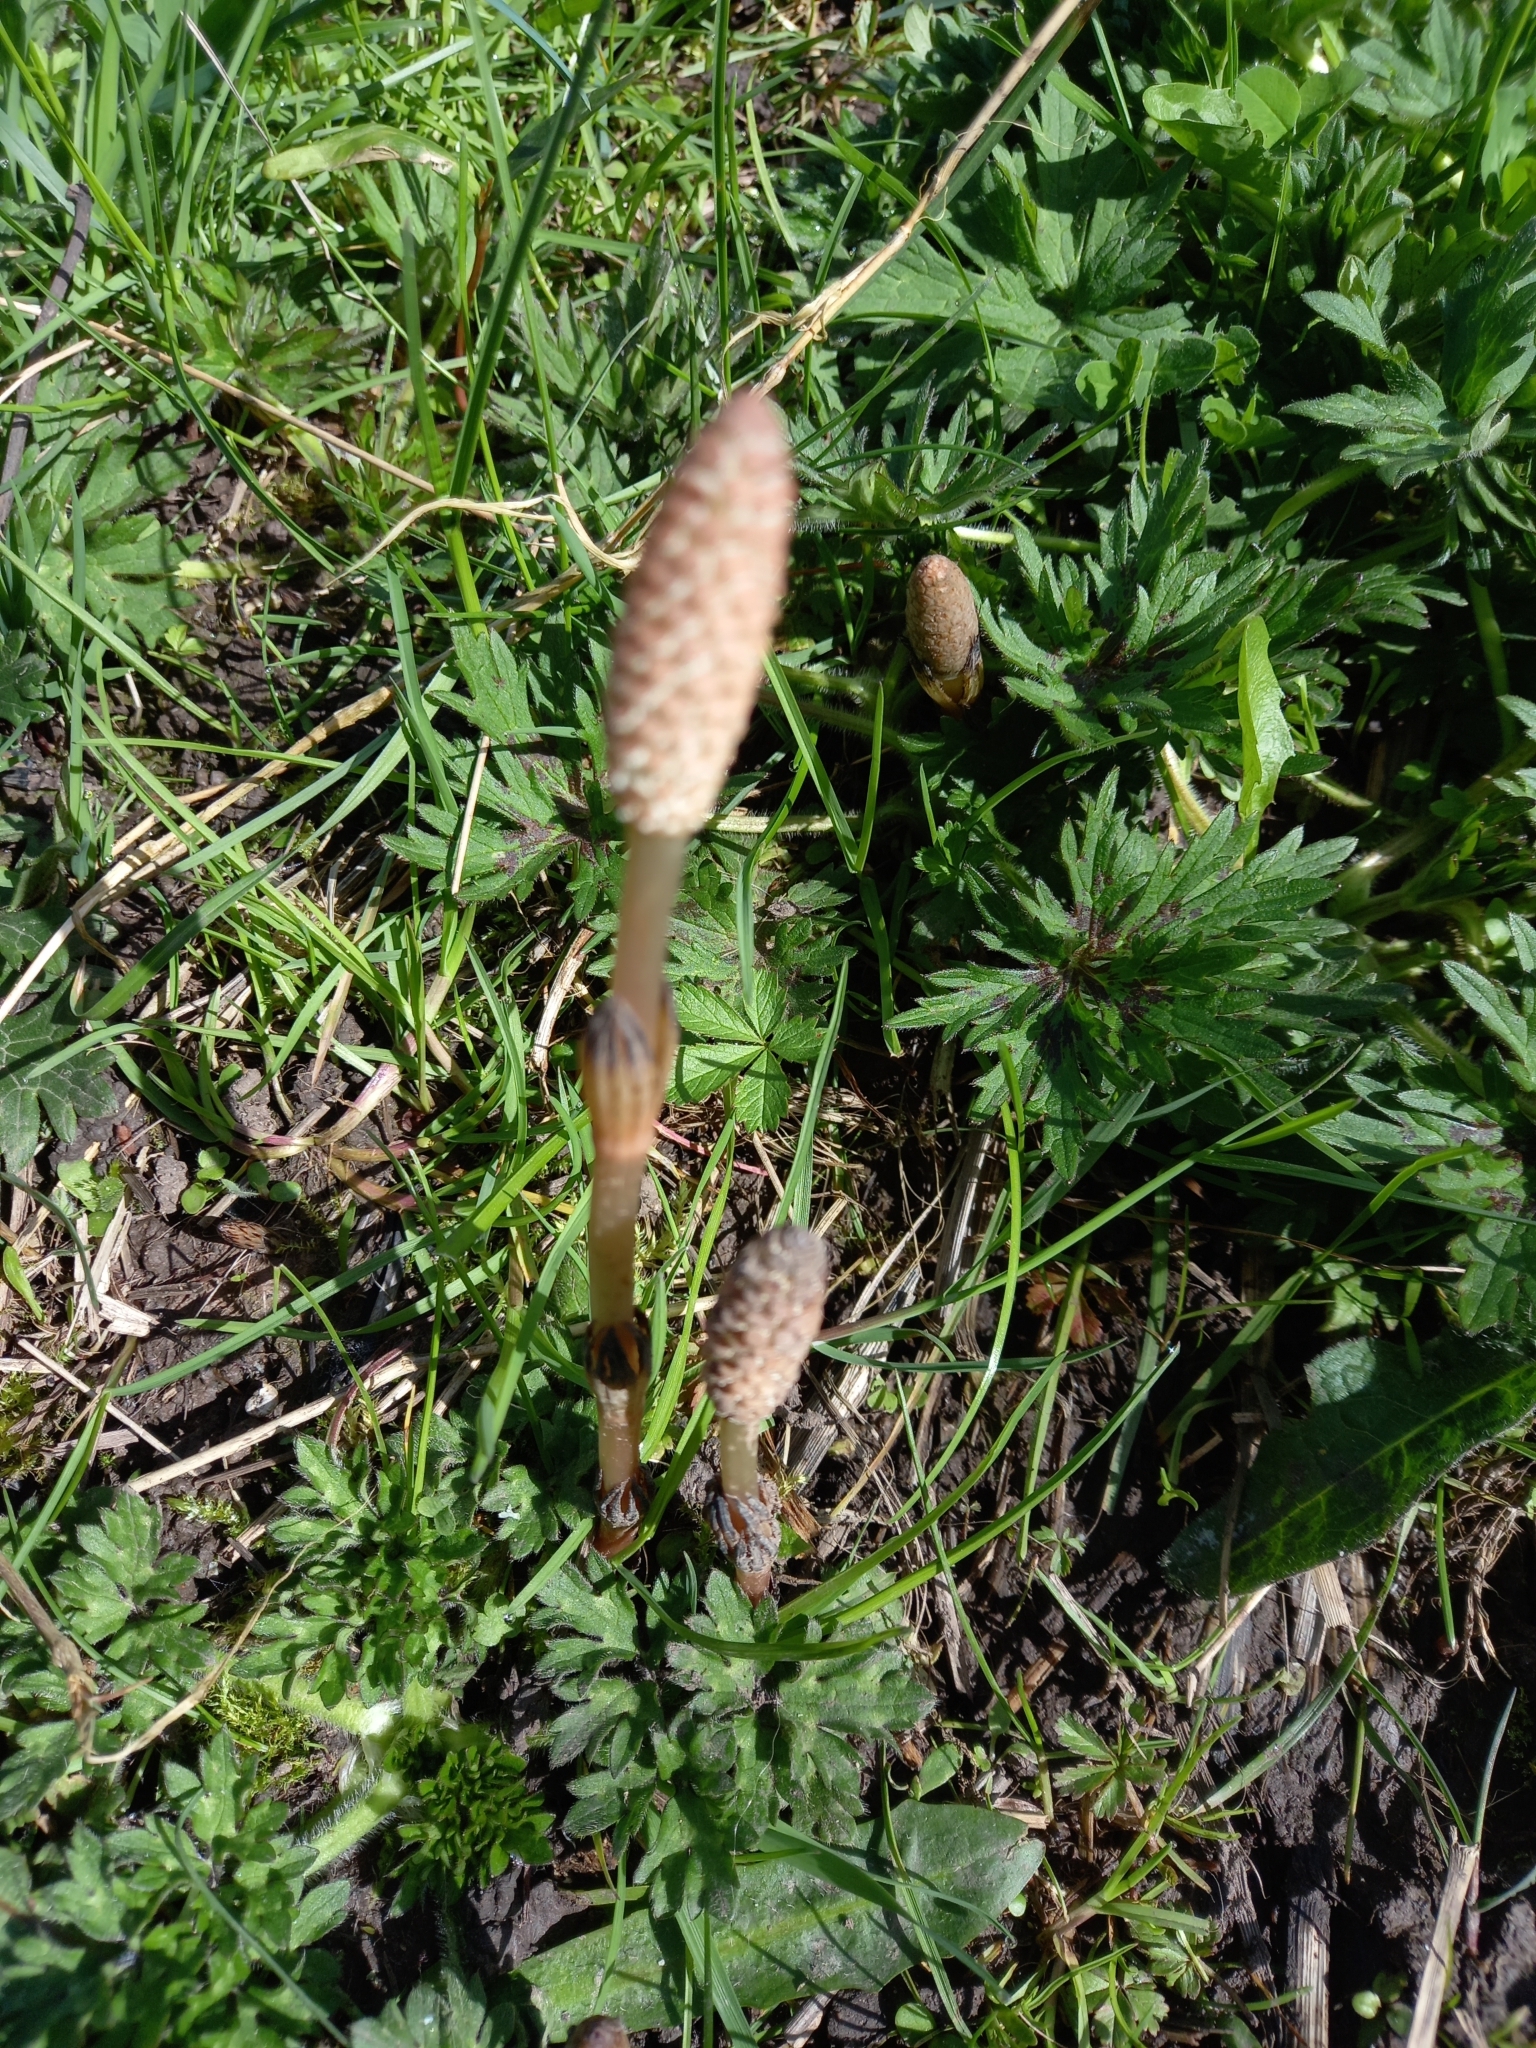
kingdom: Plantae
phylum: Tracheophyta
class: Polypodiopsida
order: Equisetales
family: Equisetaceae
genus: Equisetum
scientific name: Equisetum arvense
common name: Field horsetail
